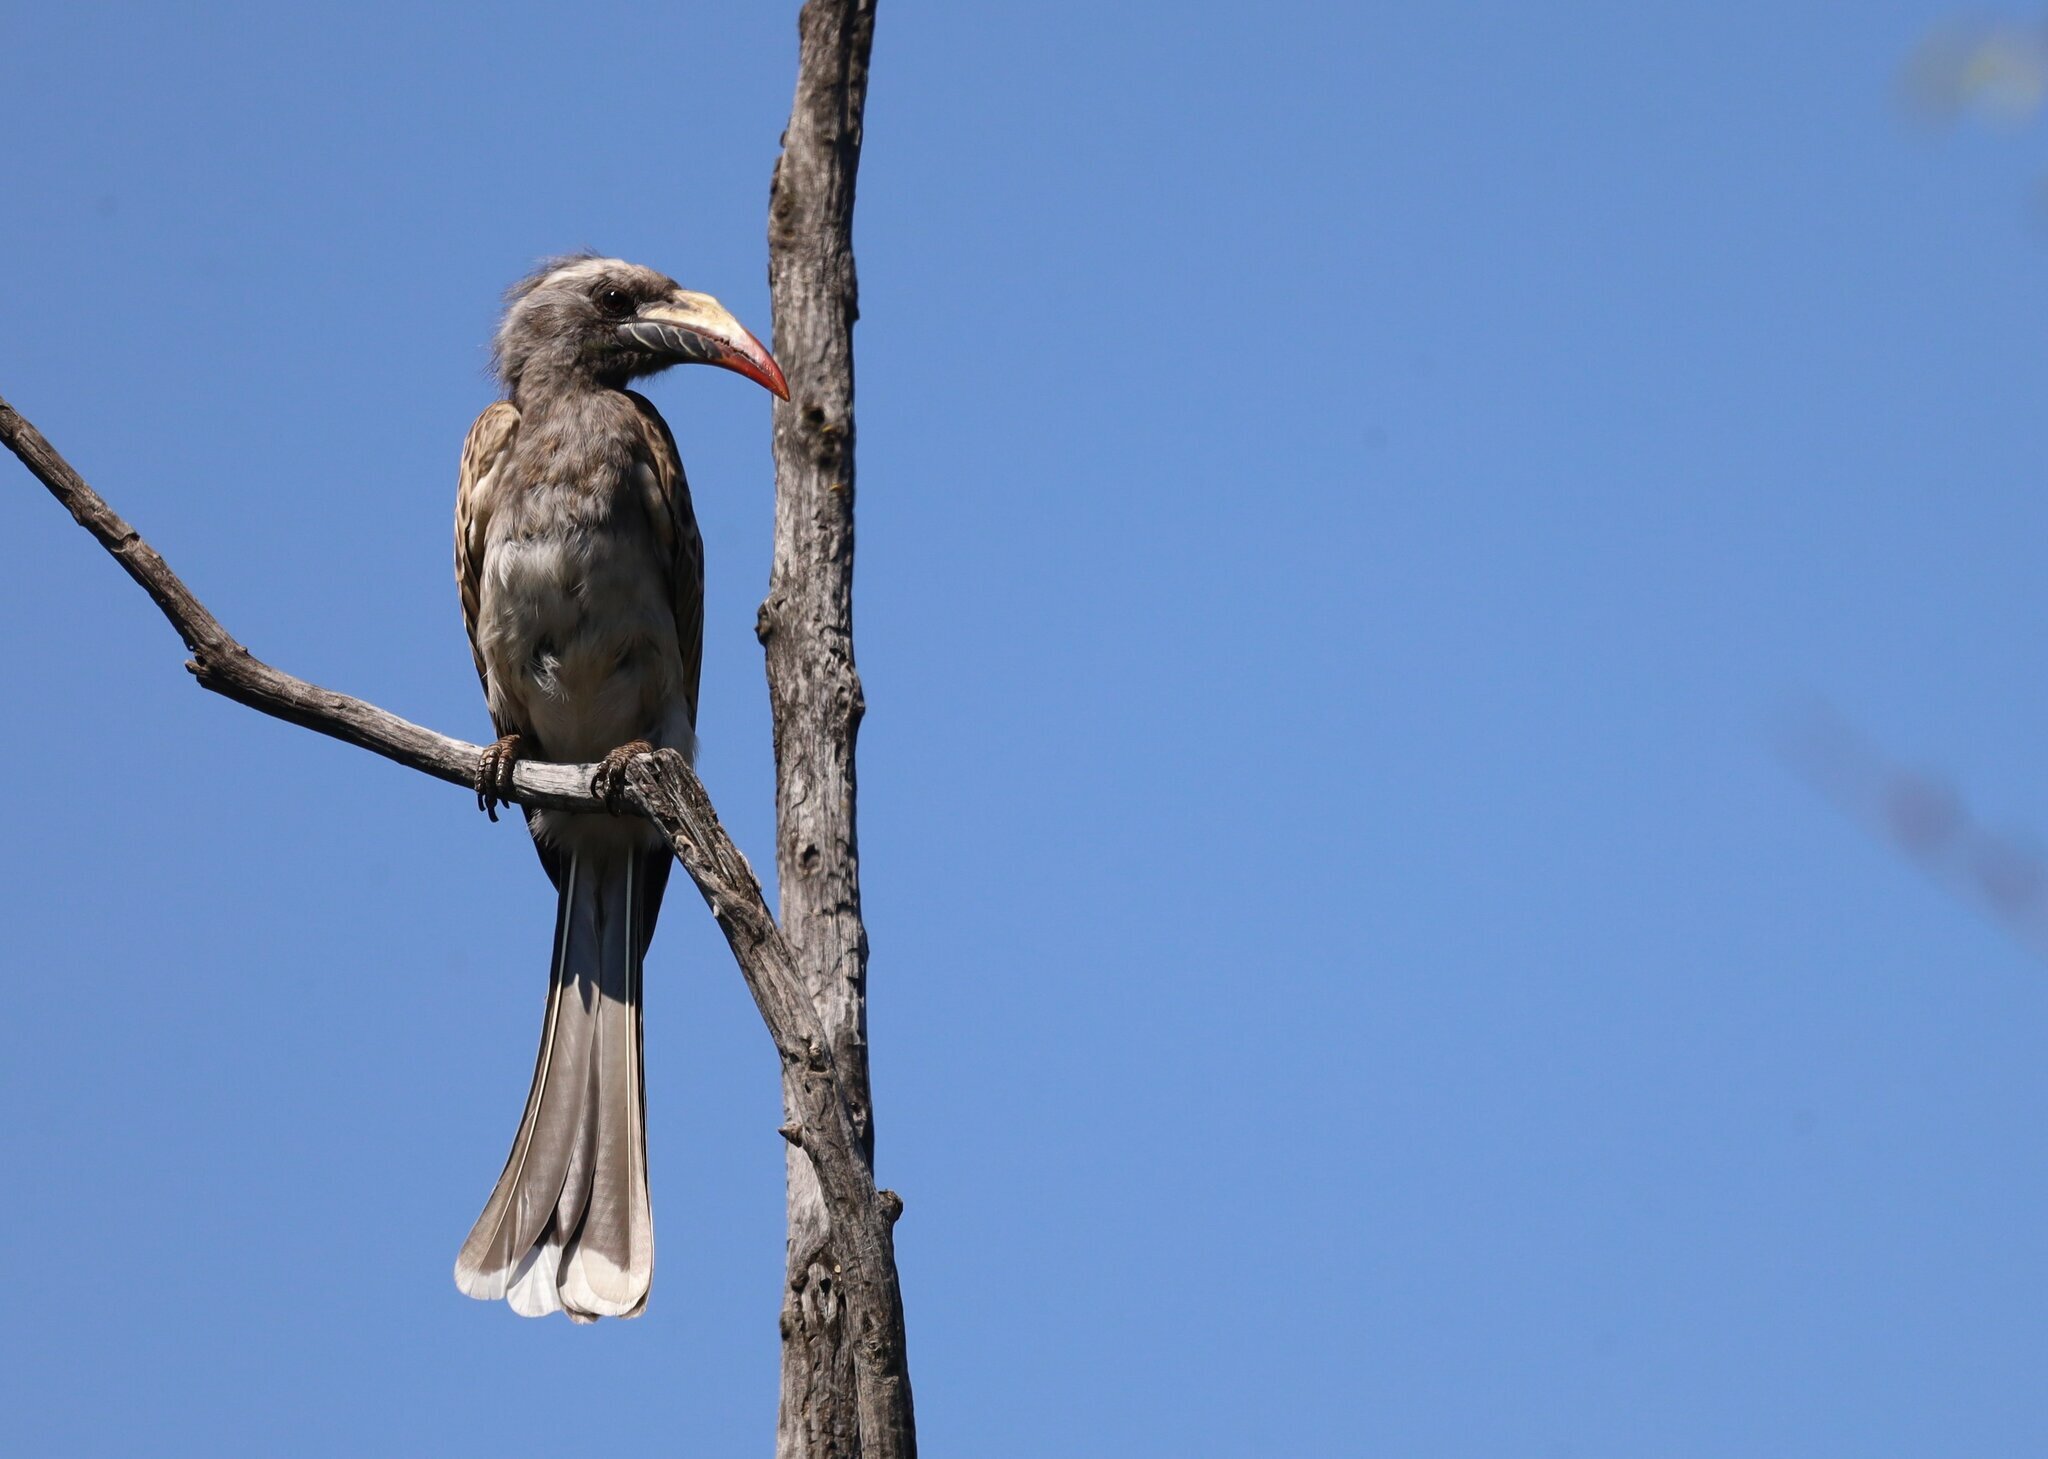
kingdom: Animalia
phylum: Chordata
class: Aves
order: Bucerotiformes
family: Bucerotidae
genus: Lophoceros
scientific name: Lophoceros nasutus
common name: African grey hornbill
